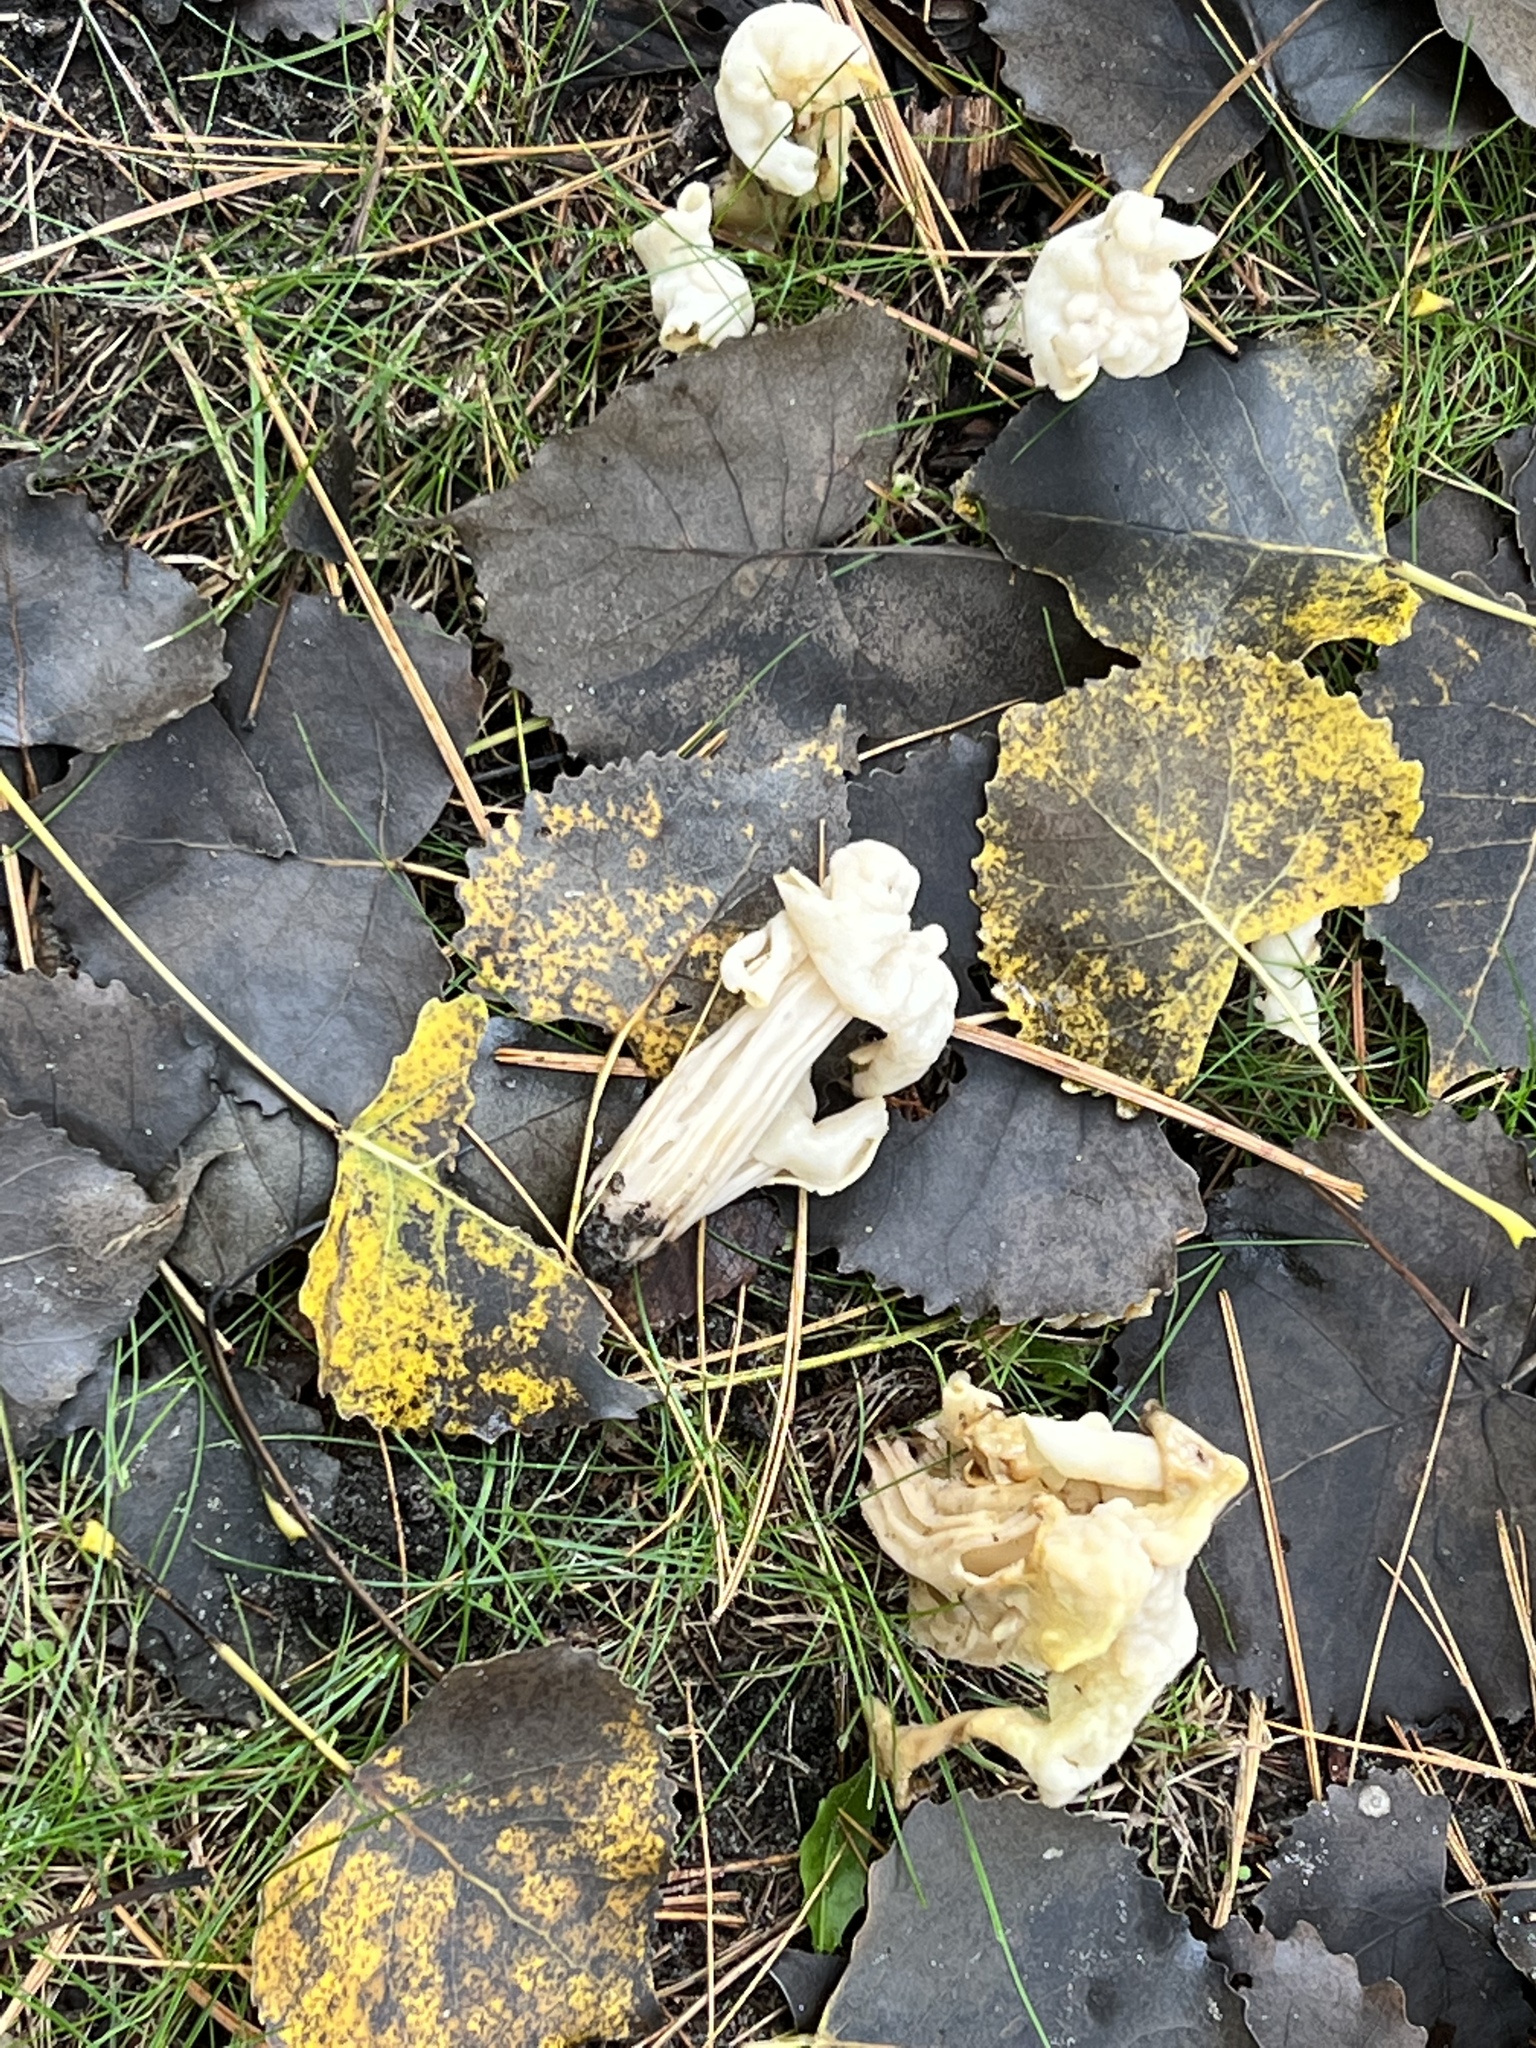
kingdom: Fungi
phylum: Ascomycota
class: Pezizomycetes
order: Pezizales
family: Helvellaceae
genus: Helvella
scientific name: Helvella crispa
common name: White saddle
